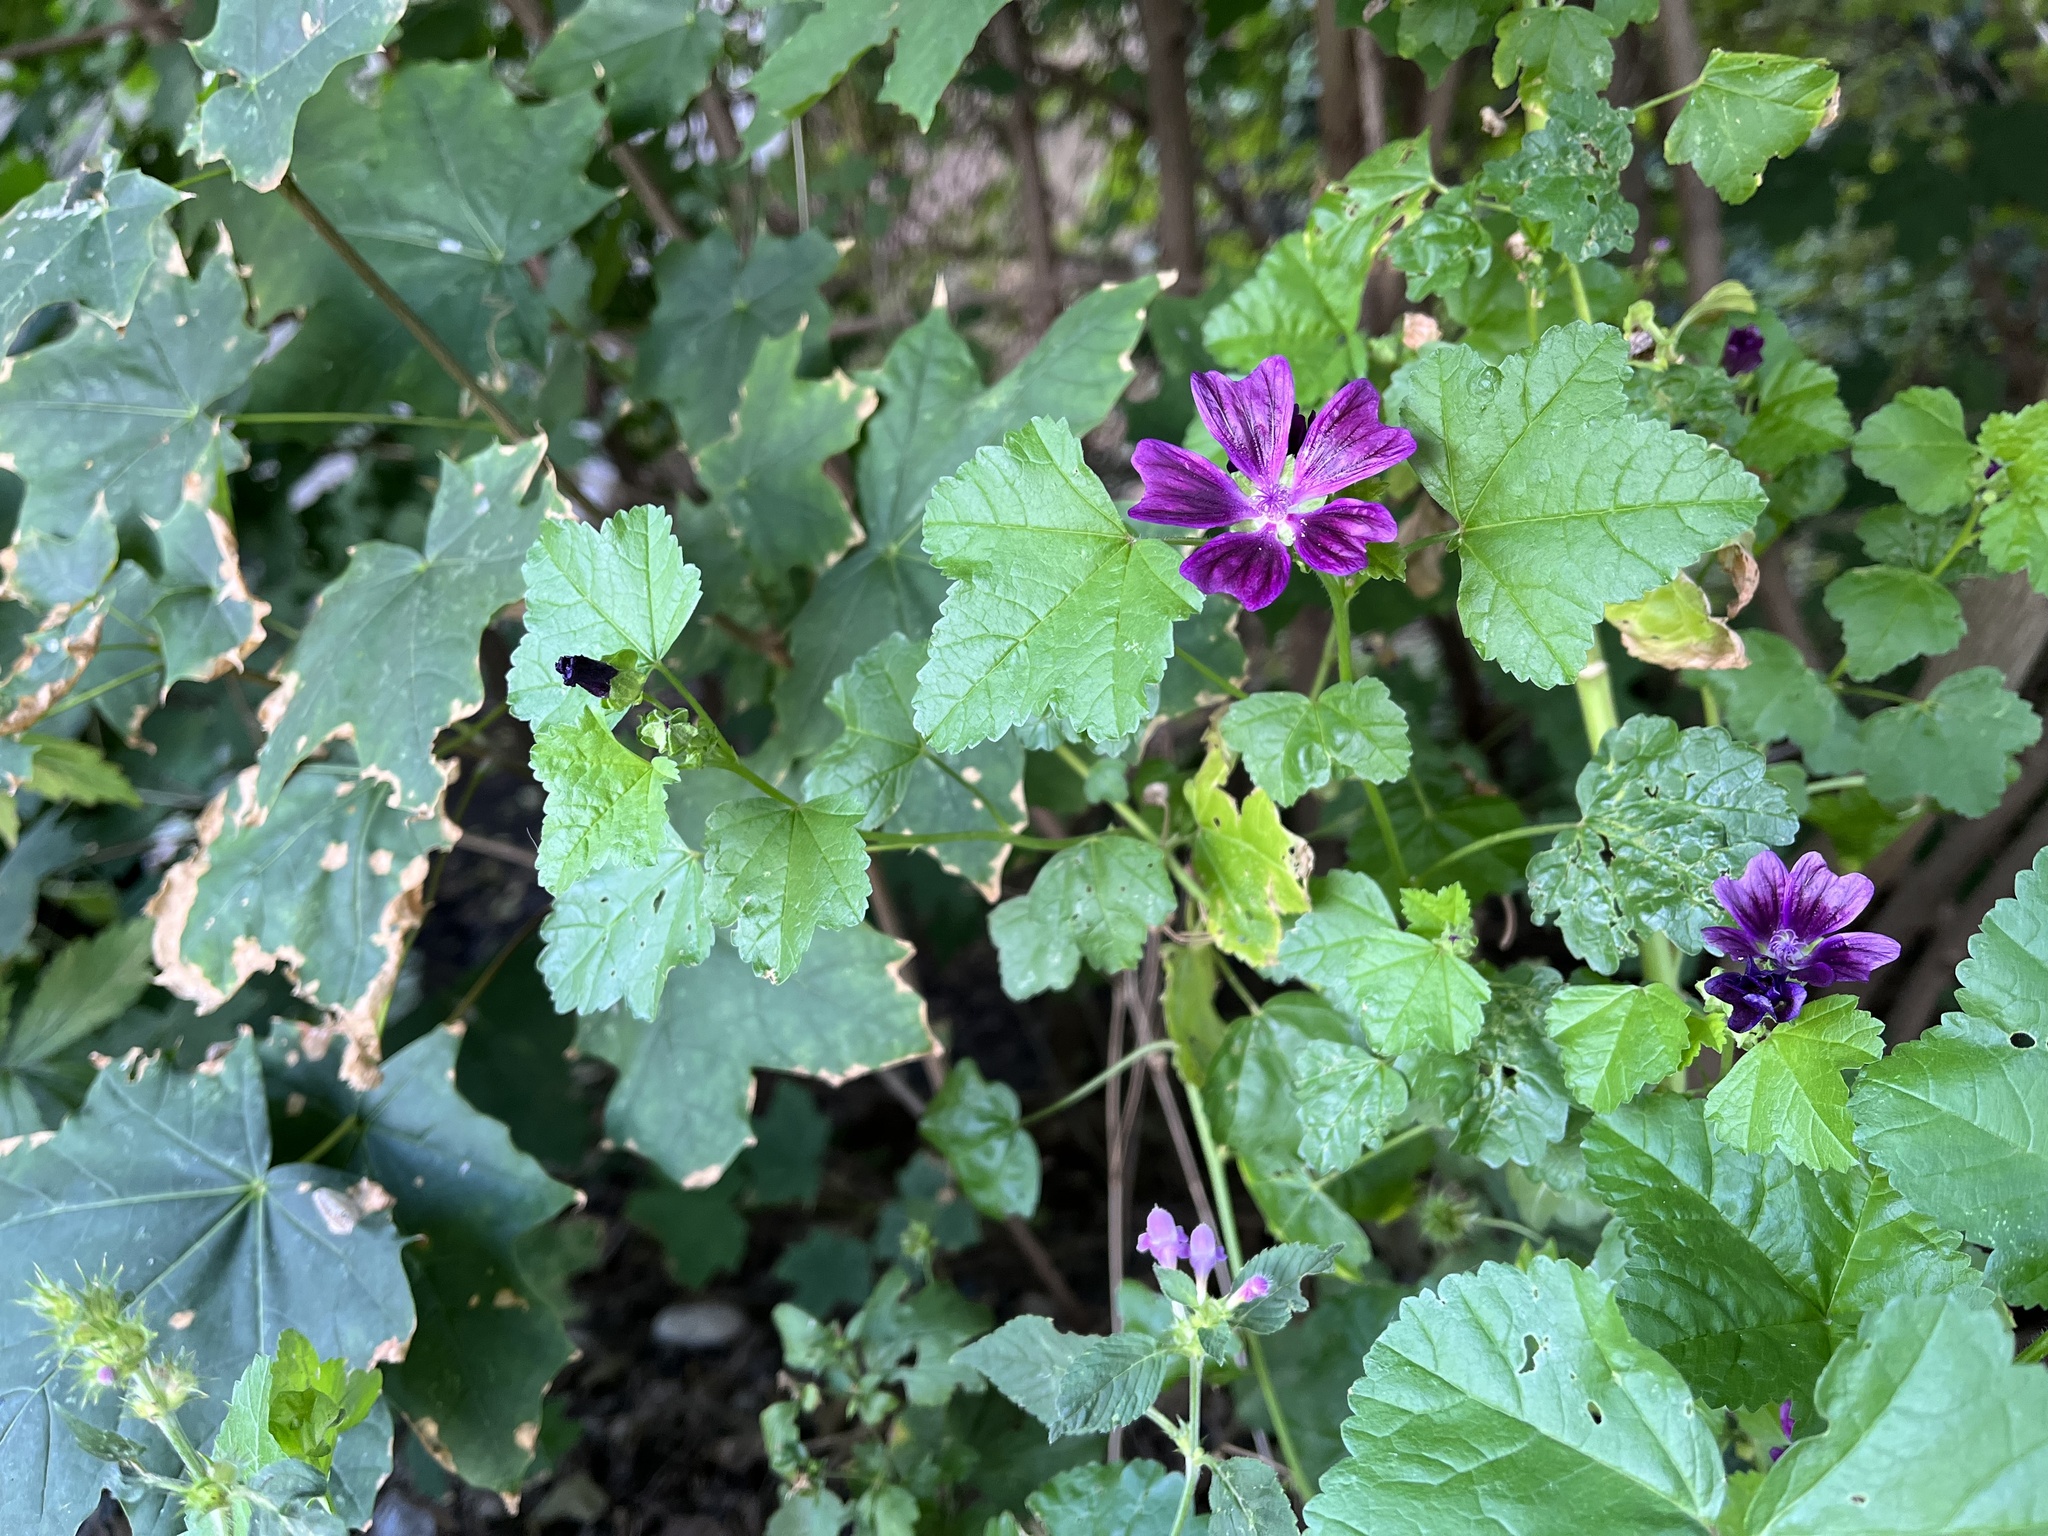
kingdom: Plantae
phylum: Tracheophyta
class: Magnoliopsida
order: Malvales
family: Malvaceae
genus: Malva
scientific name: Malva sylvestris
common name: Common mallow
